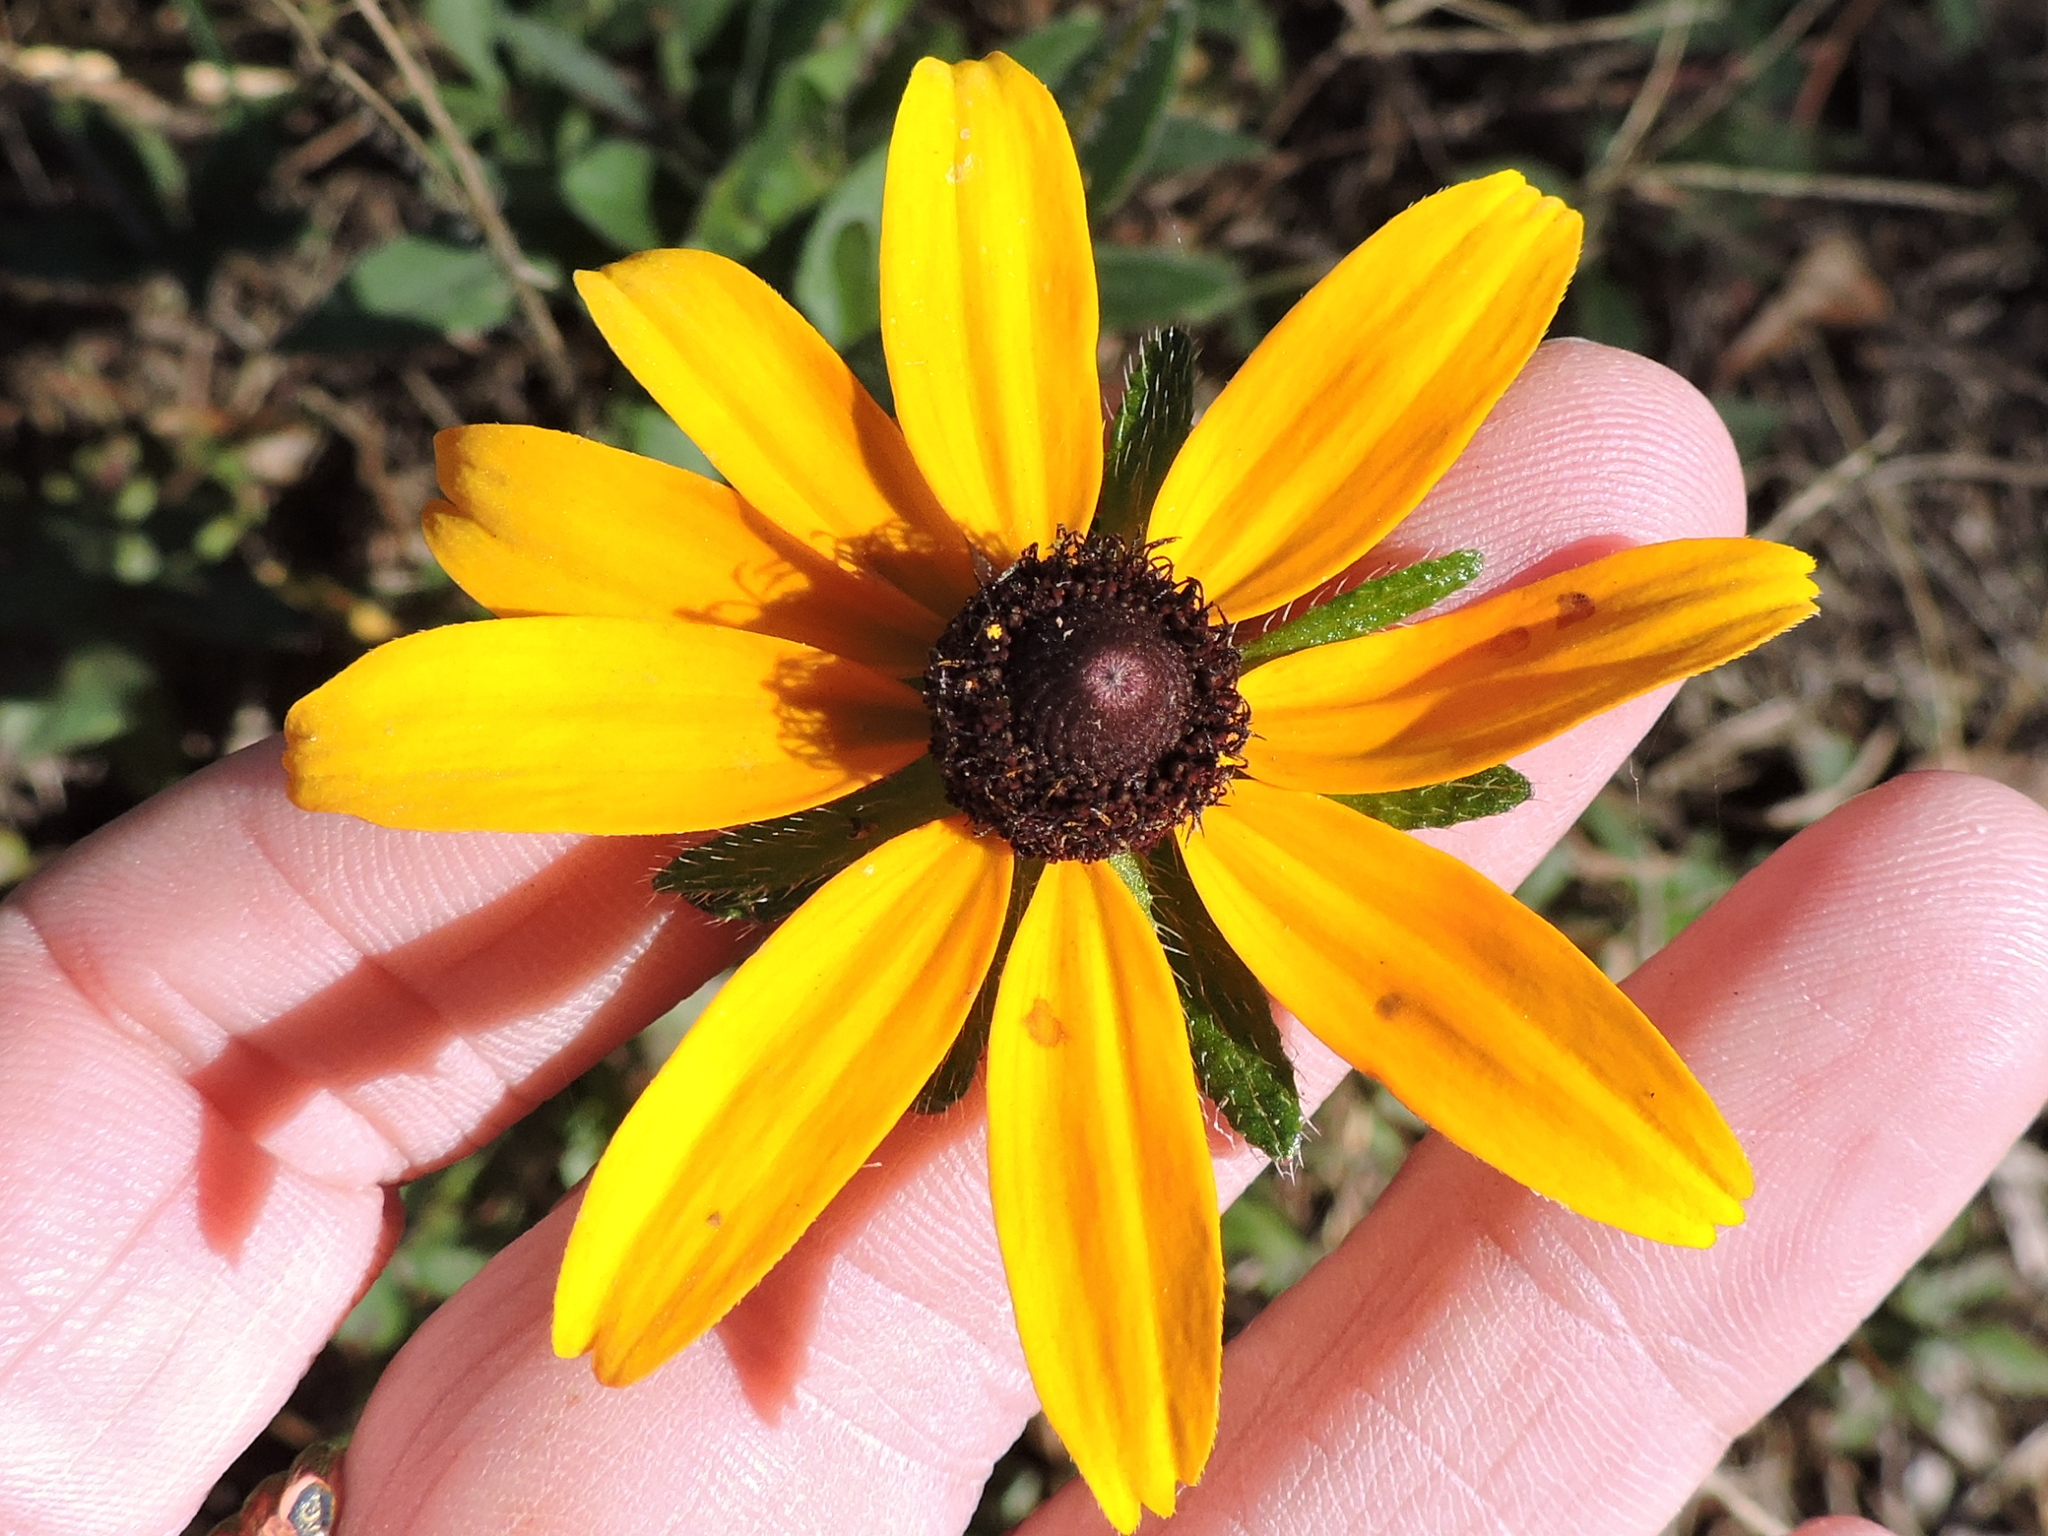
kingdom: Plantae
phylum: Tracheophyta
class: Magnoliopsida
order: Asterales
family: Asteraceae
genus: Rudbeckia
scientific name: Rudbeckia hirta
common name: Black-eyed-susan
